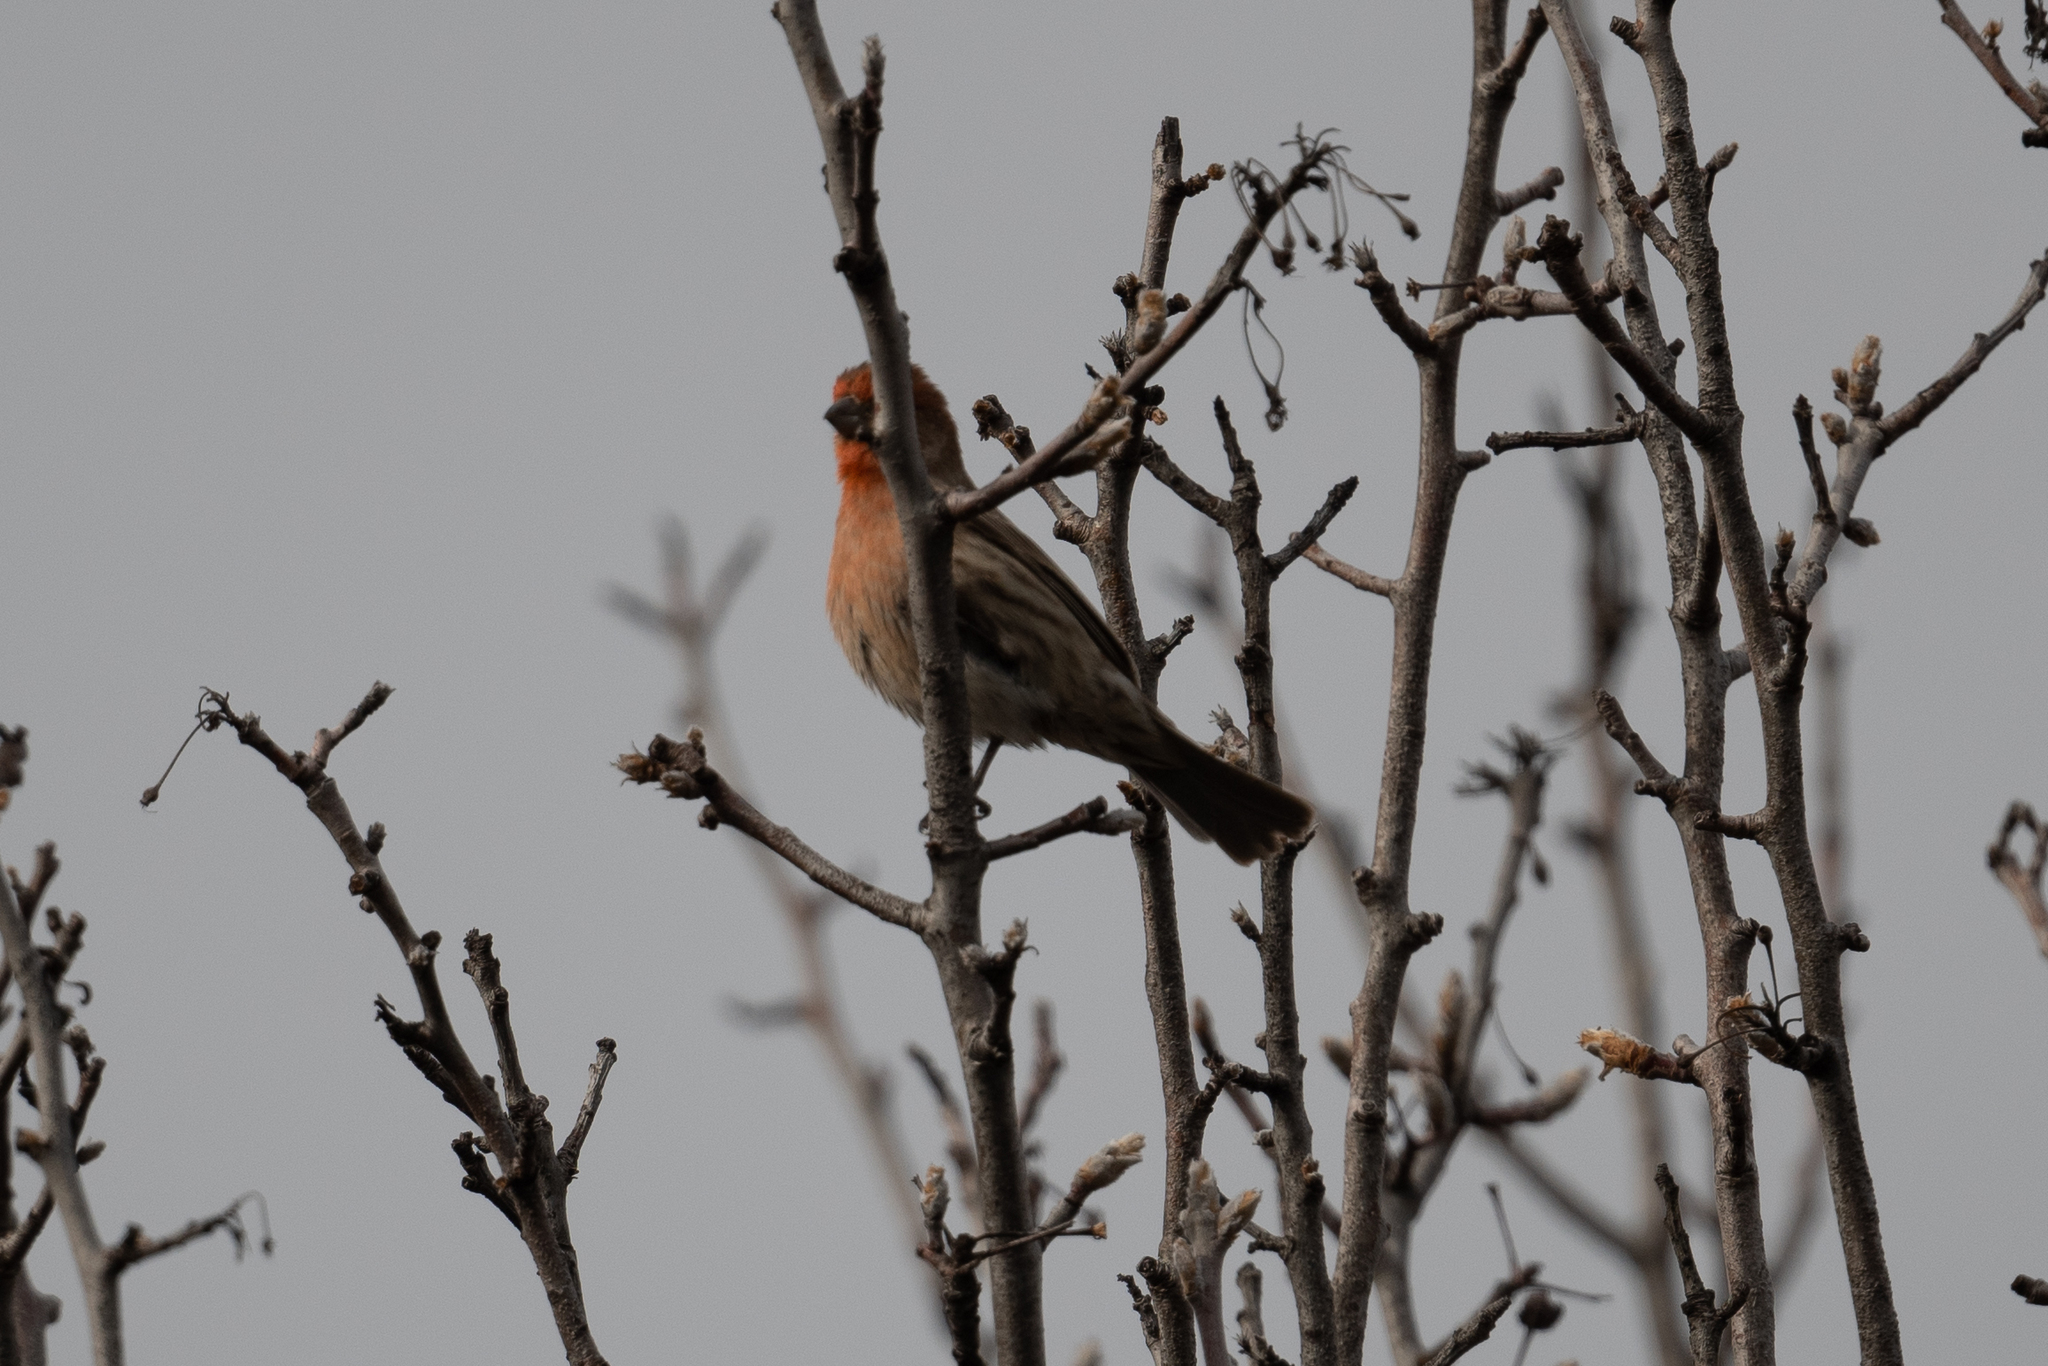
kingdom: Animalia
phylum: Chordata
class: Aves
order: Passeriformes
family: Fringillidae
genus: Haemorhous
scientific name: Haemorhous mexicanus
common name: House finch
